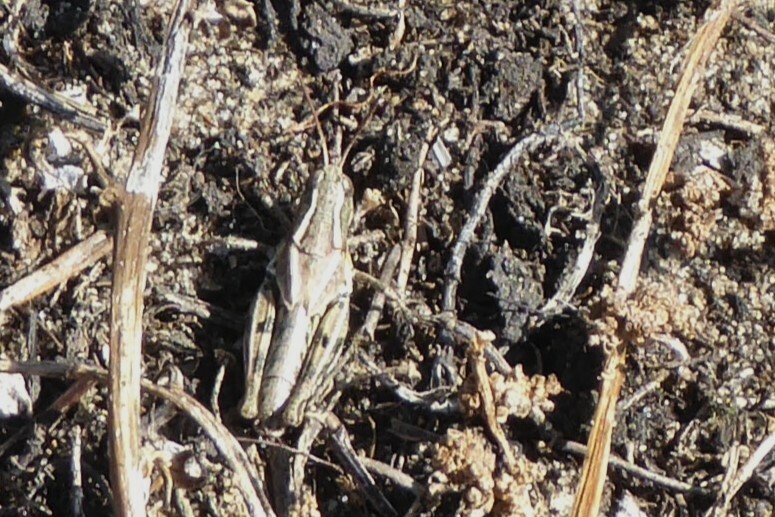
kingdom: Animalia
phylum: Arthropoda
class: Insecta
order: Orthoptera
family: Acrididae
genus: Phaulacridium
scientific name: Phaulacridium marginale
